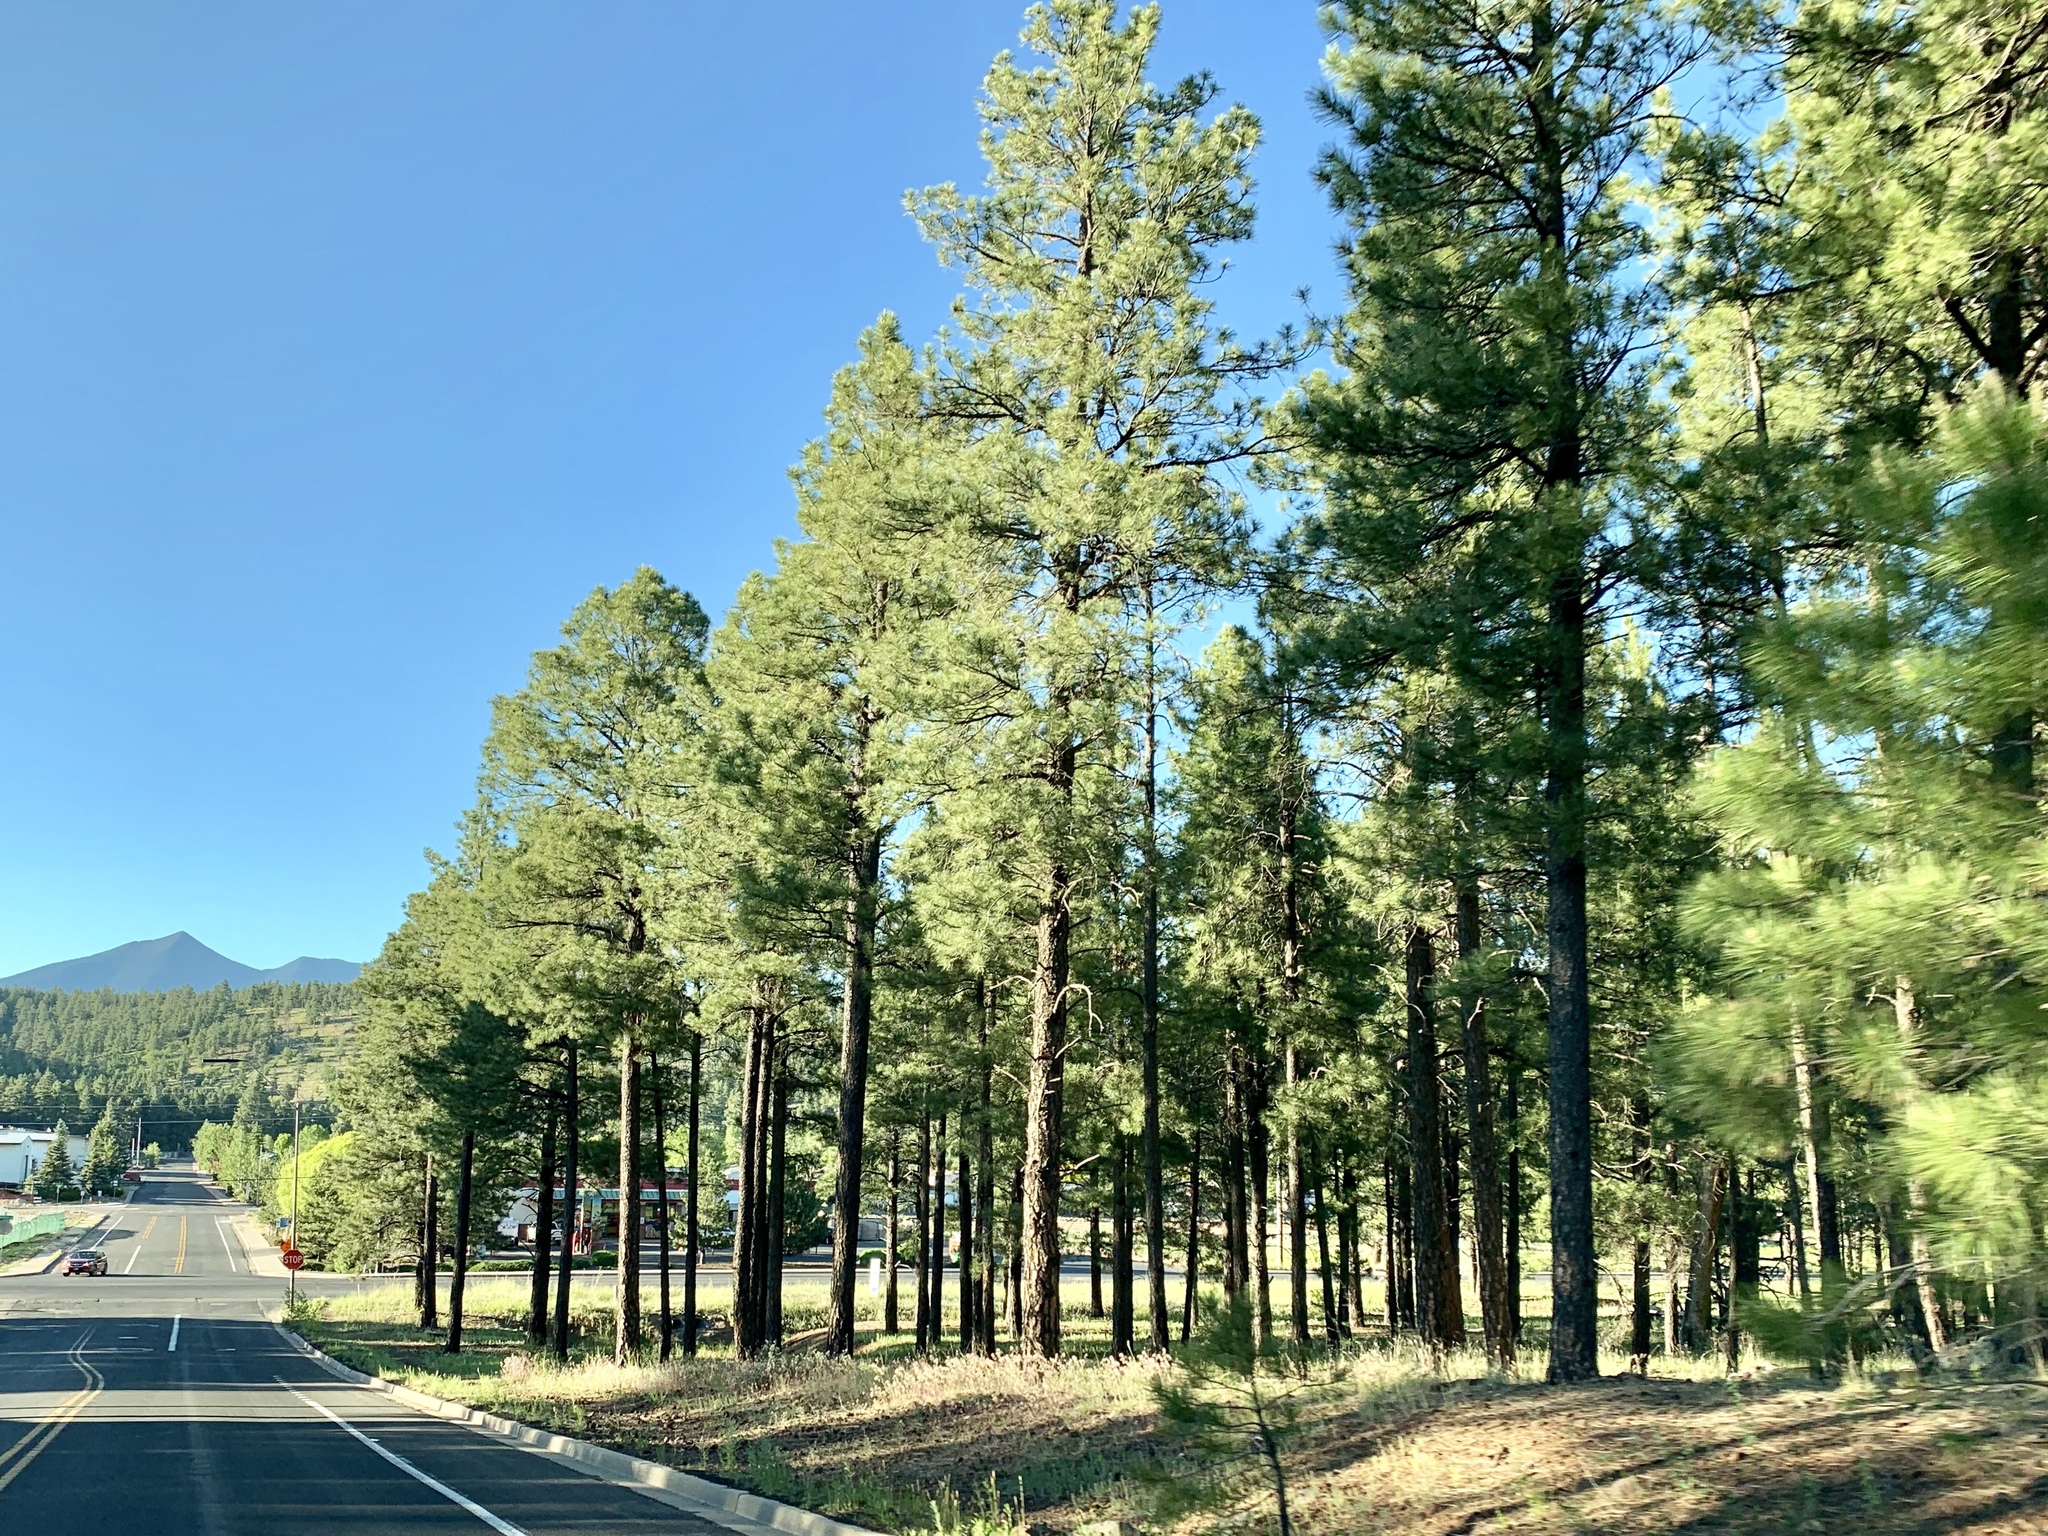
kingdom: Plantae
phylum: Tracheophyta
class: Pinopsida
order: Pinales
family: Pinaceae
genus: Pinus
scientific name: Pinus ponderosa
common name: Western yellow-pine
